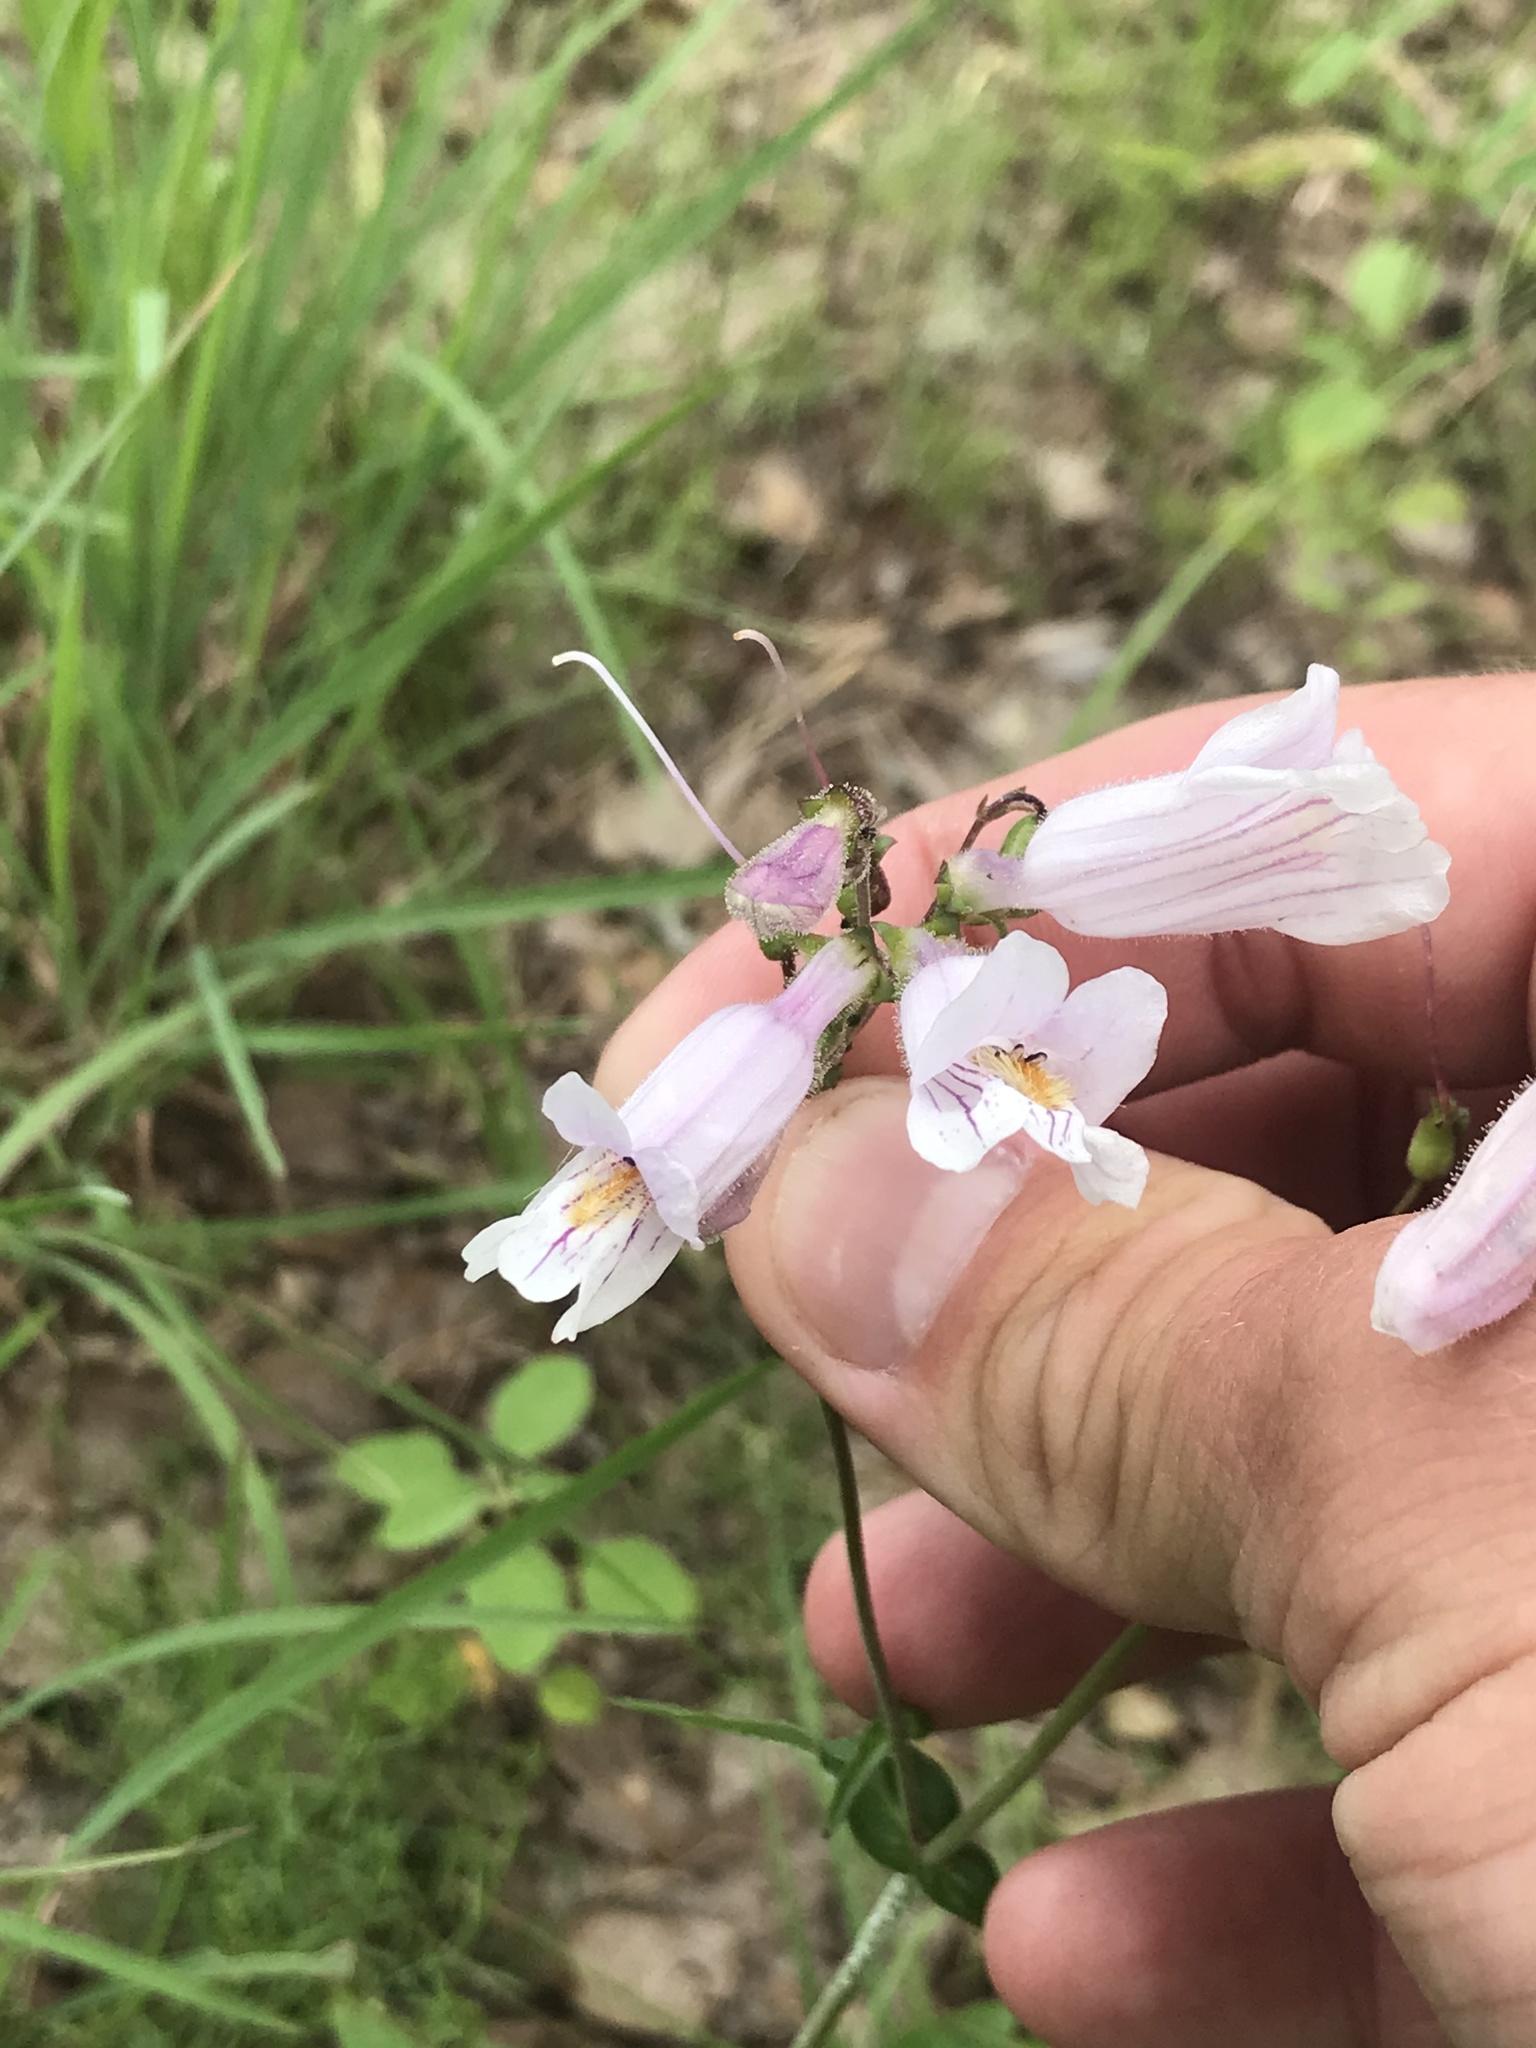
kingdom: Plantae
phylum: Tracheophyta
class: Magnoliopsida
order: Lamiales
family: Plantaginaceae
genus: Penstemon
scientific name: Penstemon laxiflorus
